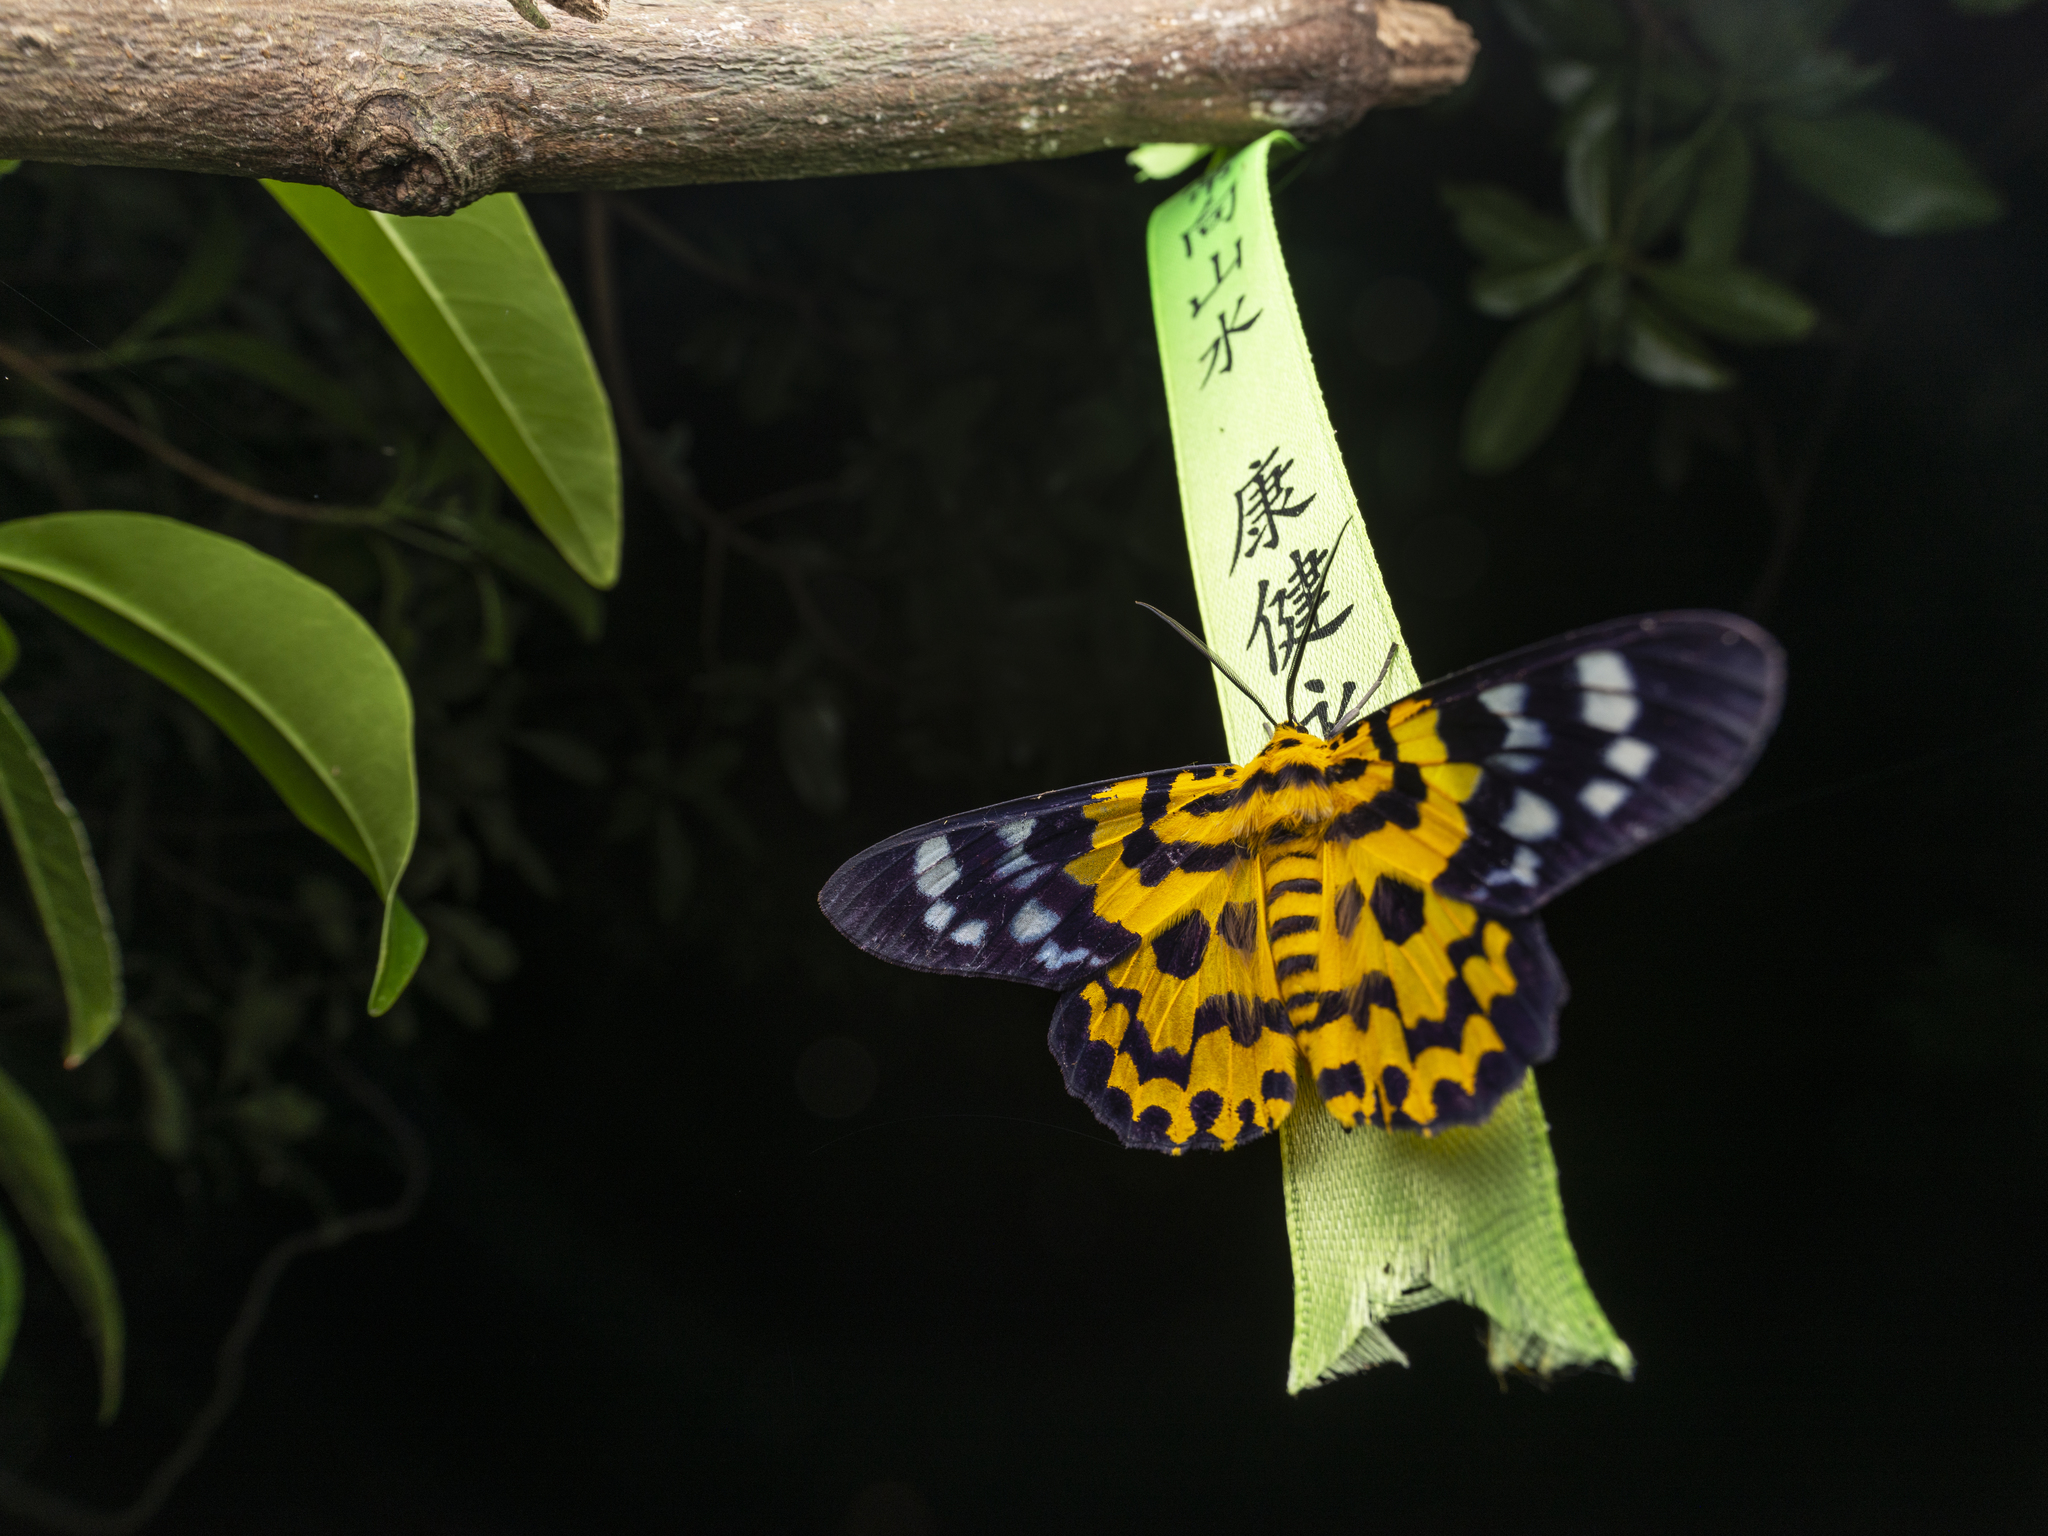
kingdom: Animalia
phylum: Arthropoda
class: Insecta
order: Lepidoptera
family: Geometridae
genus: Dysphania
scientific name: Dysphania militaris
